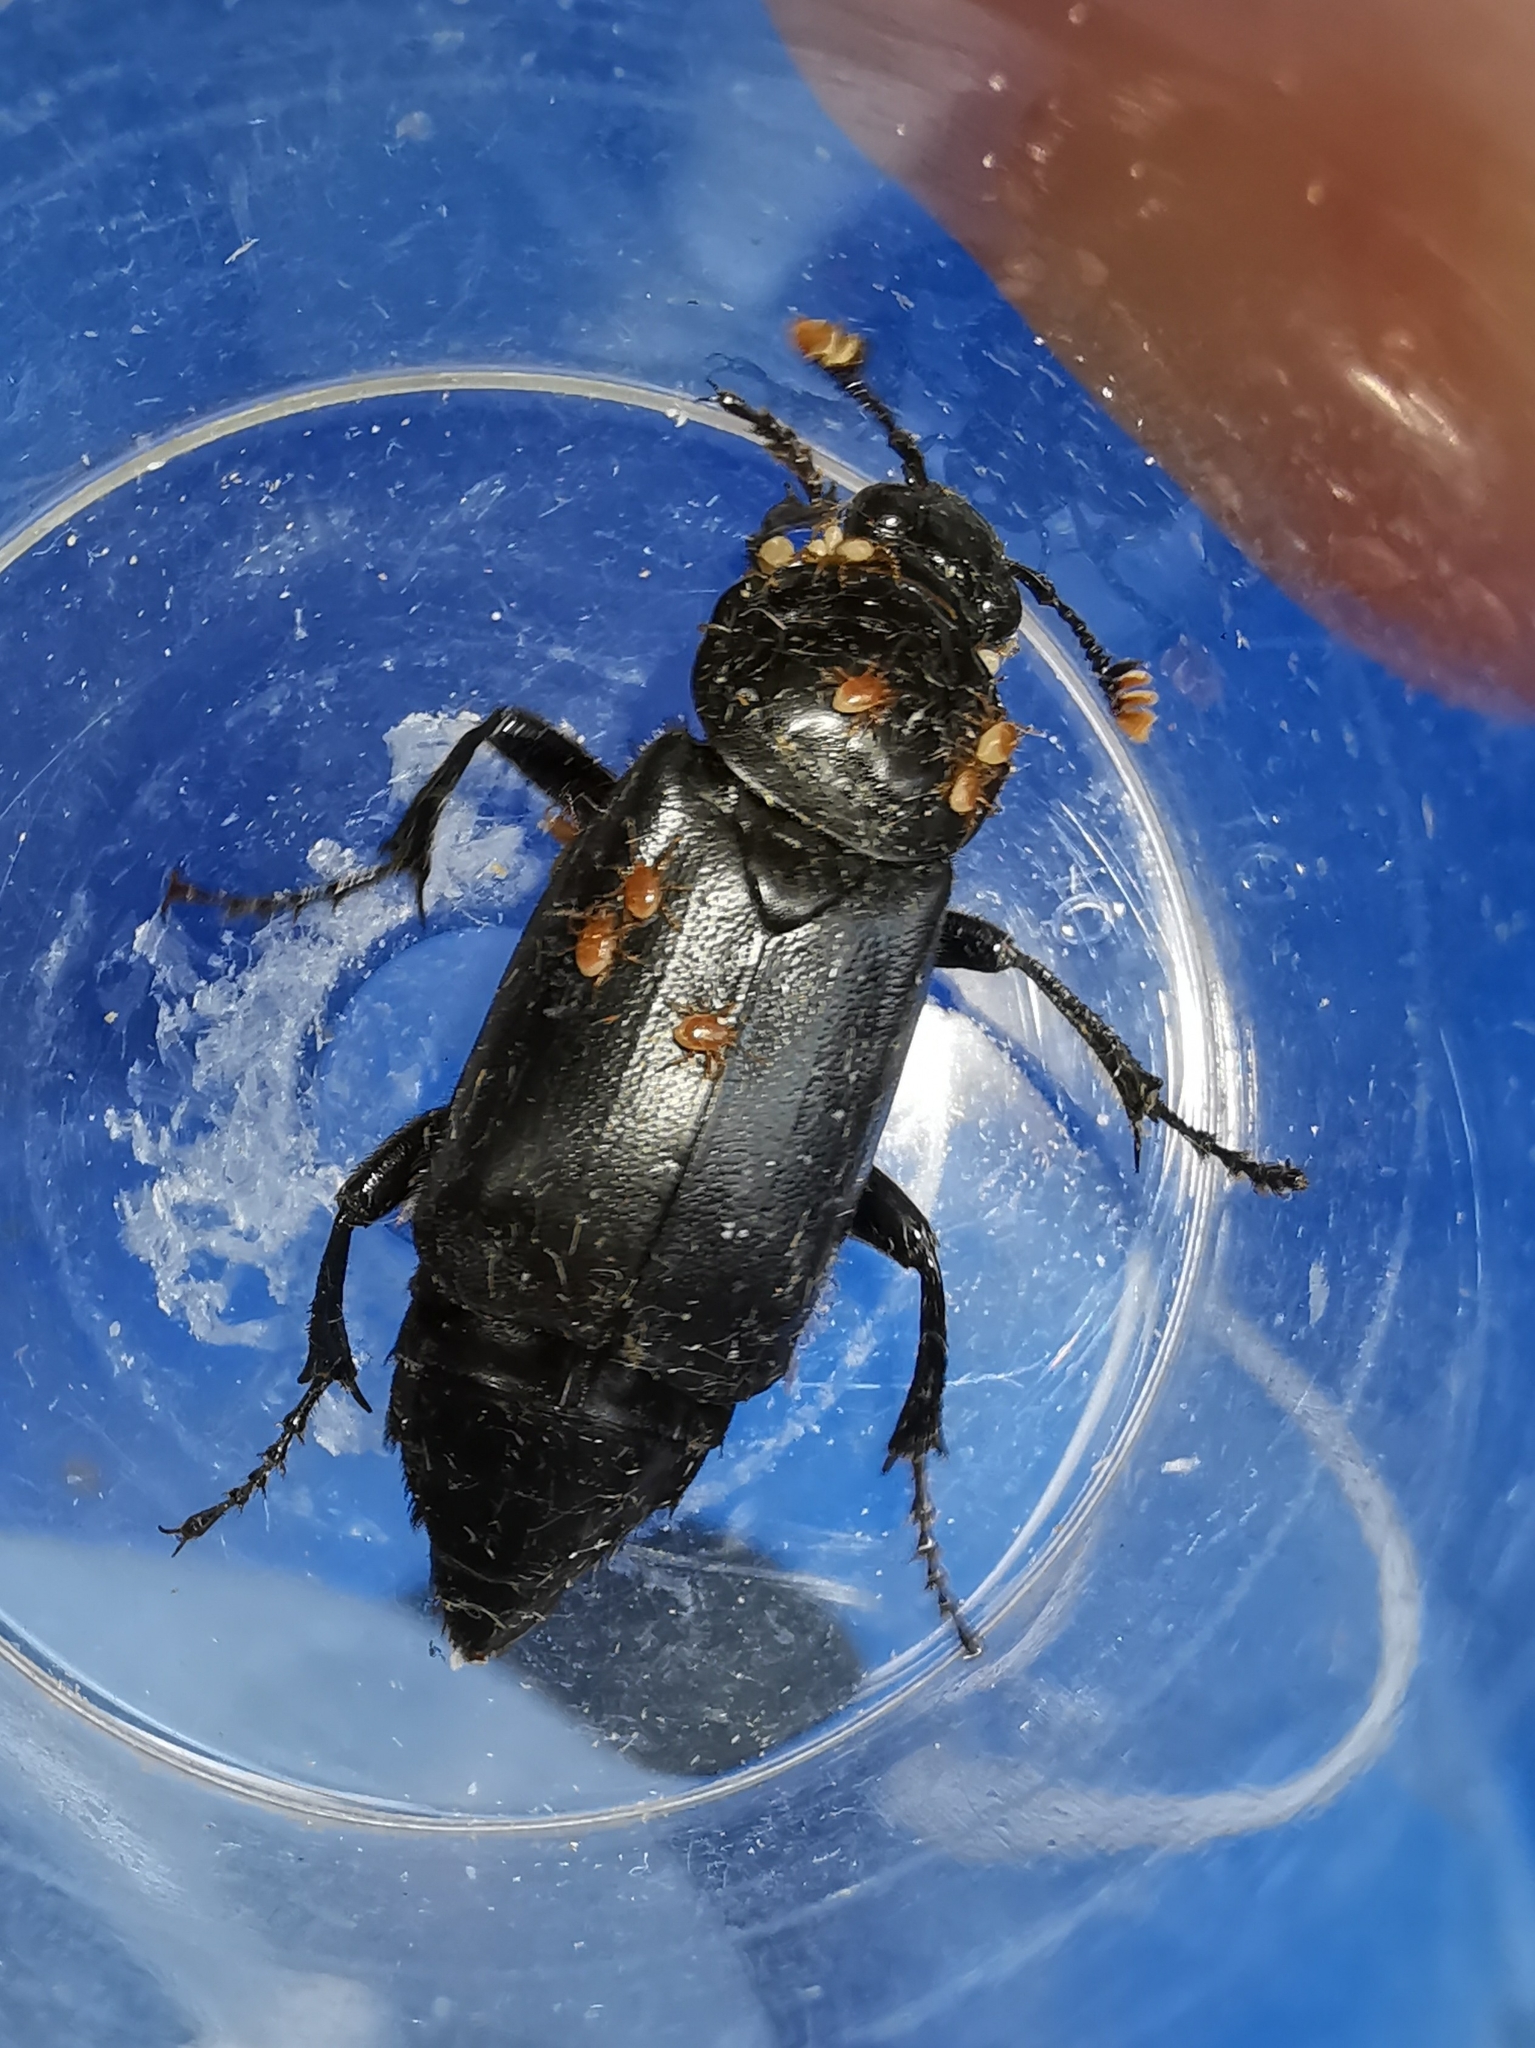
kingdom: Animalia
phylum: Arthropoda
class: Insecta
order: Coleoptera
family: Staphylinidae
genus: Nicrophorus
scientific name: Nicrophorus humator
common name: Black sexton beetle
